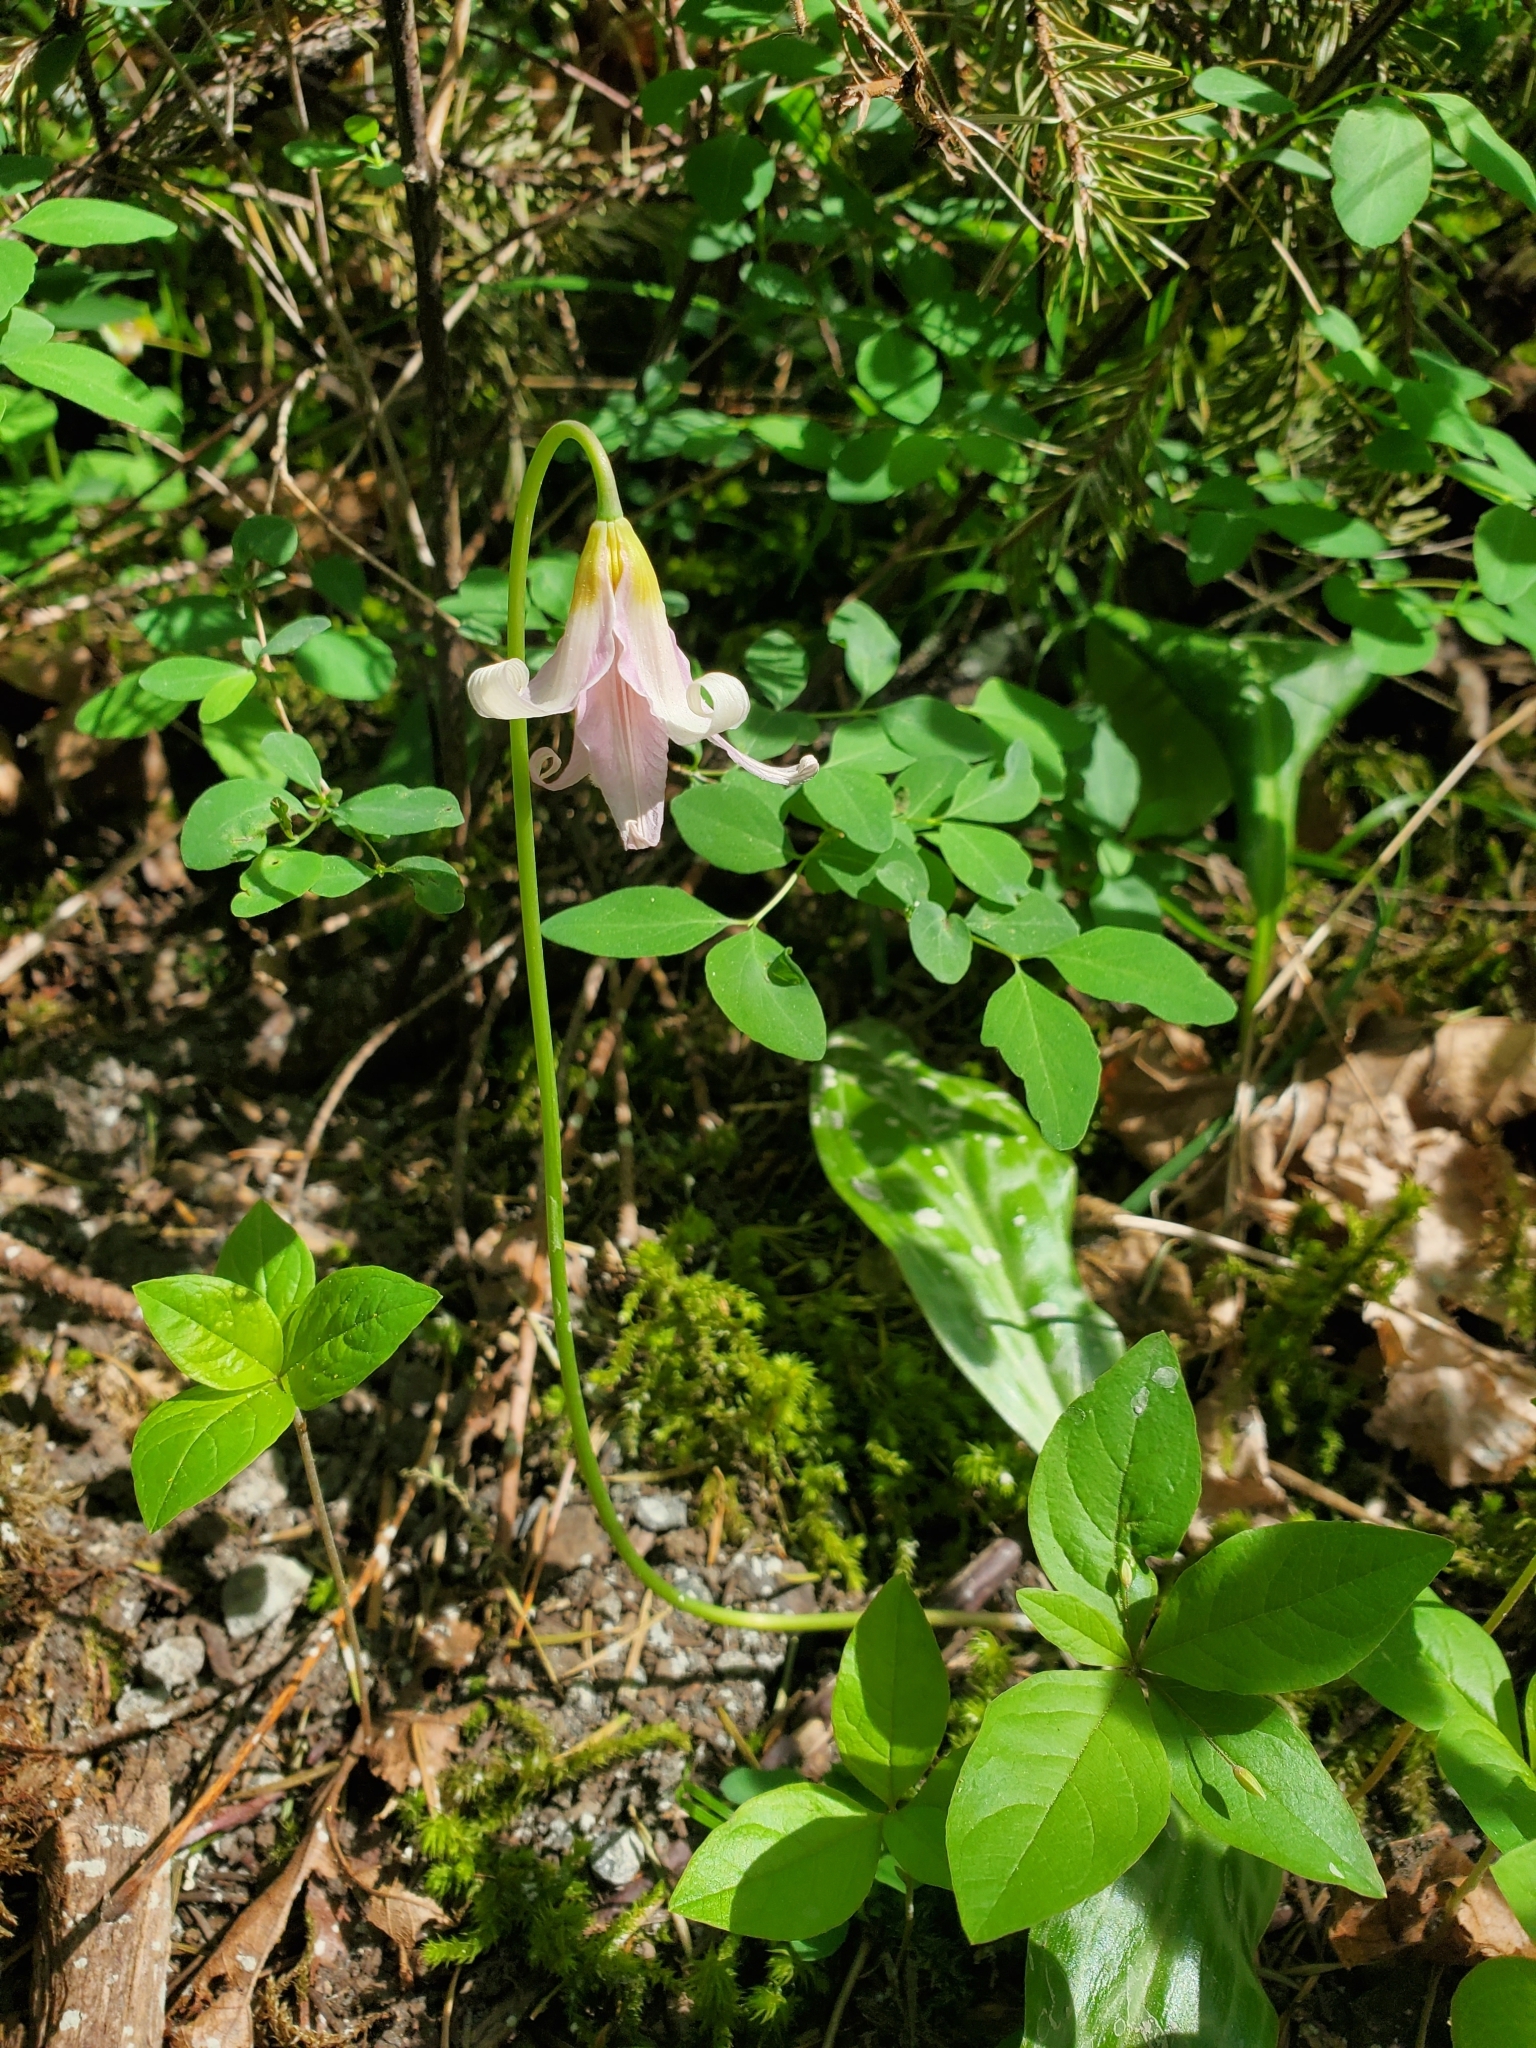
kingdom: Plantae
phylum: Tracheophyta
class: Liliopsida
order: Liliales
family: Liliaceae
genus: Erythronium
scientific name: Erythronium oregonum
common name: Giant adder's-tongue
